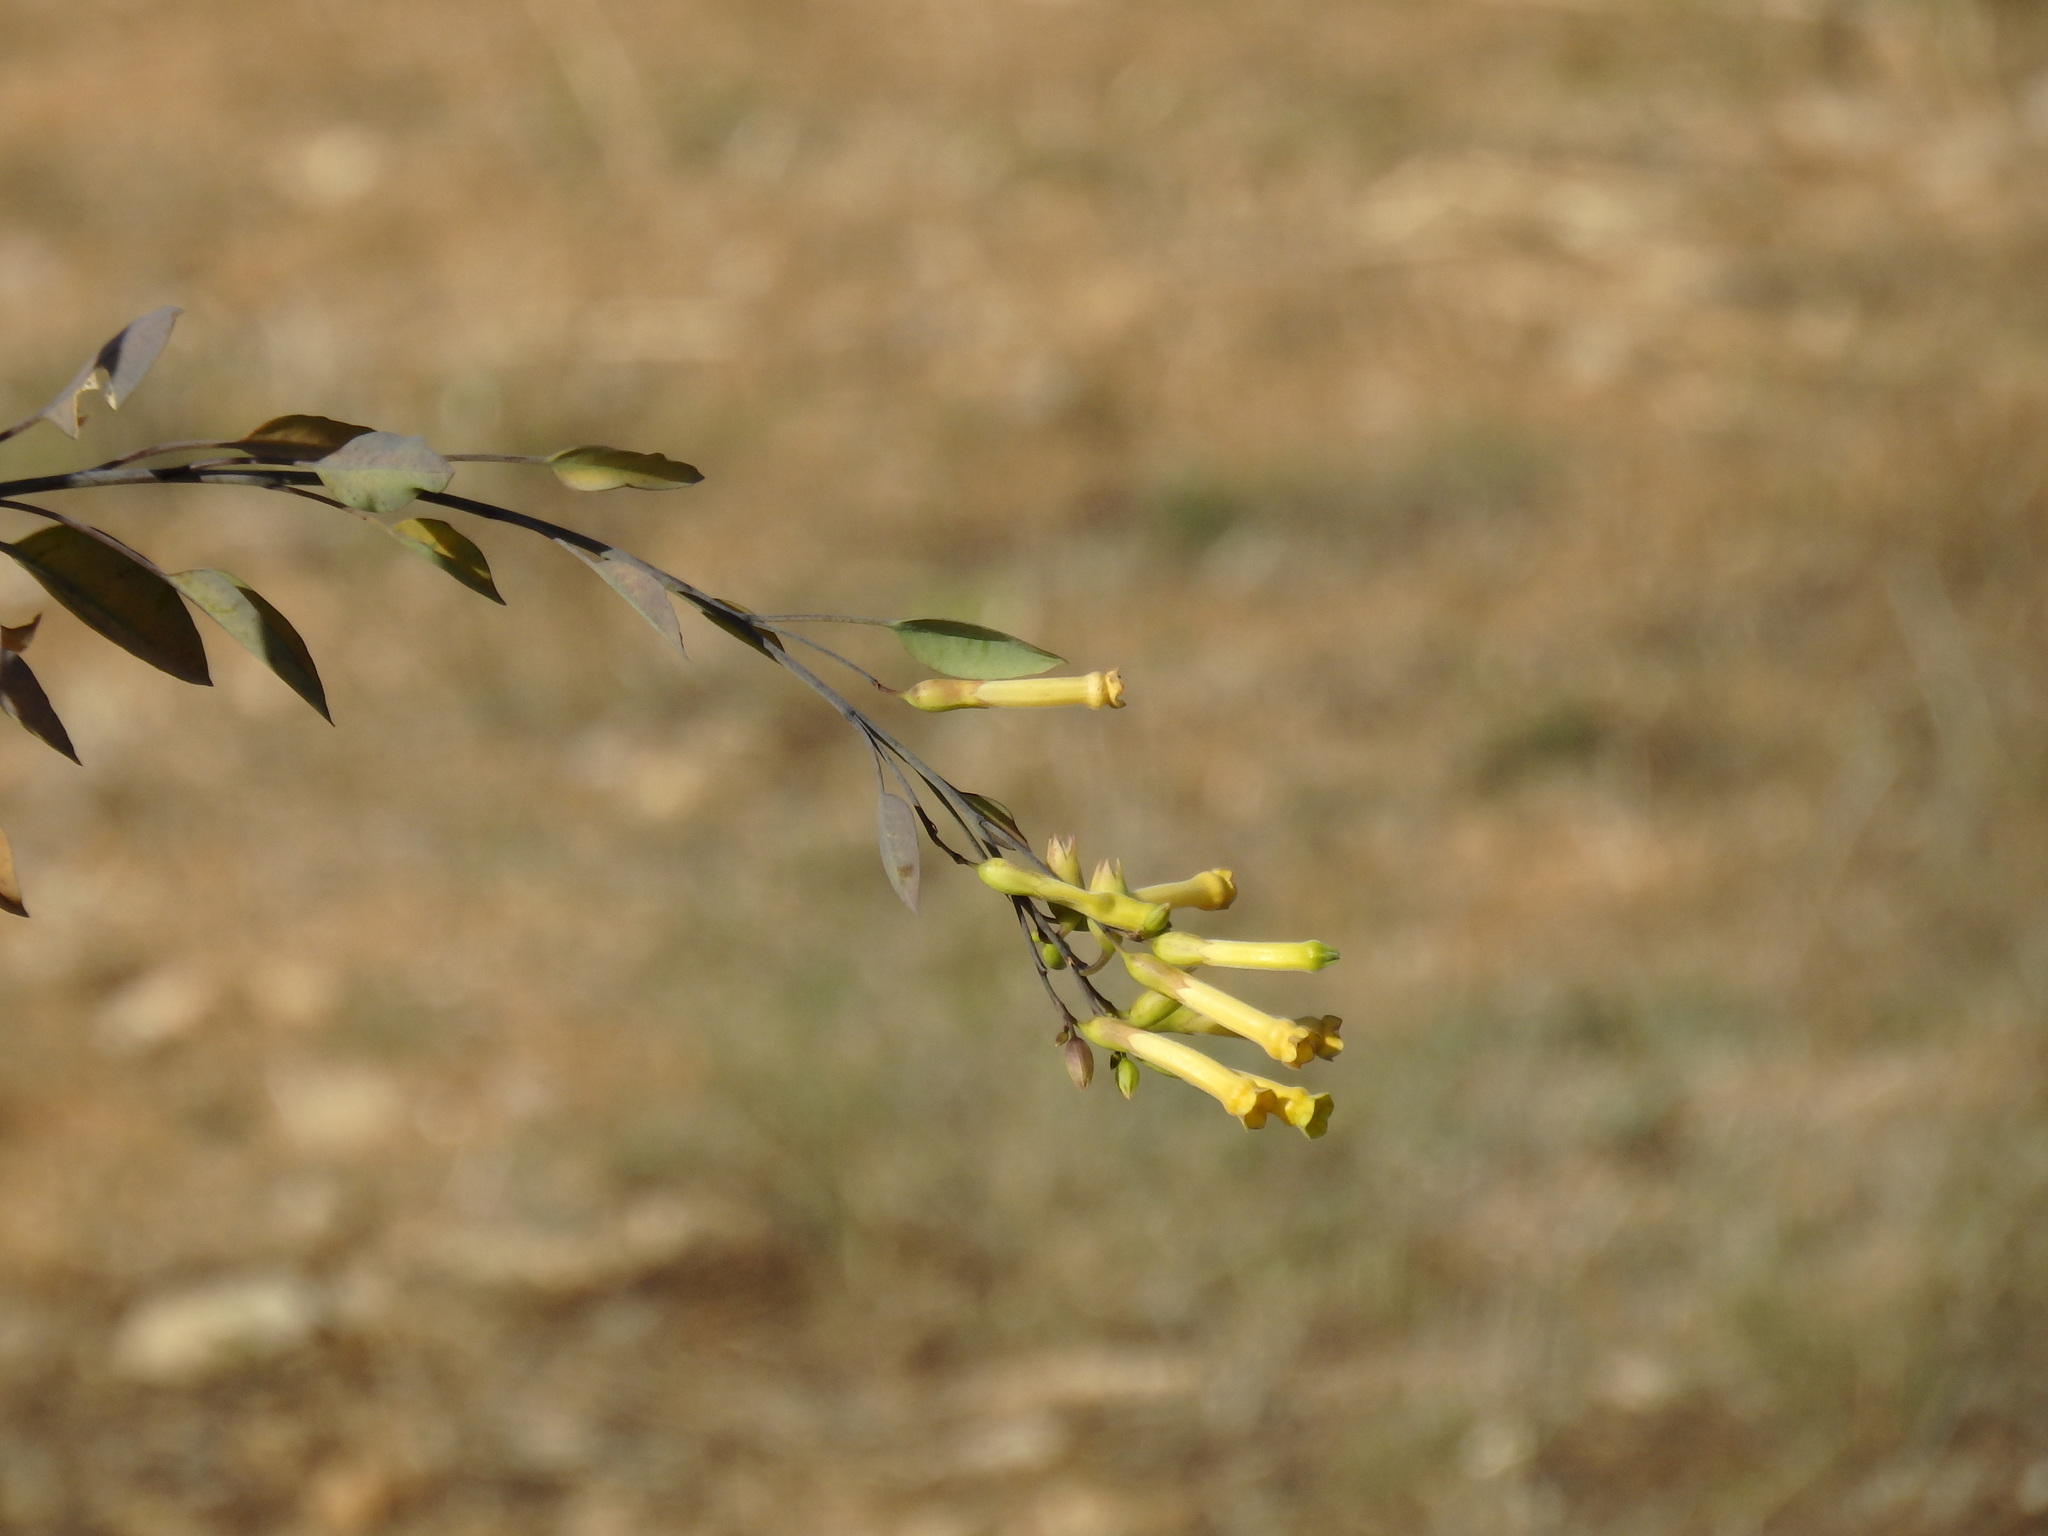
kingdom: Plantae
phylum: Tracheophyta
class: Magnoliopsida
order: Solanales
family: Solanaceae
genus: Nicotiana
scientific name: Nicotiana glauca
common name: Tree tobacco
